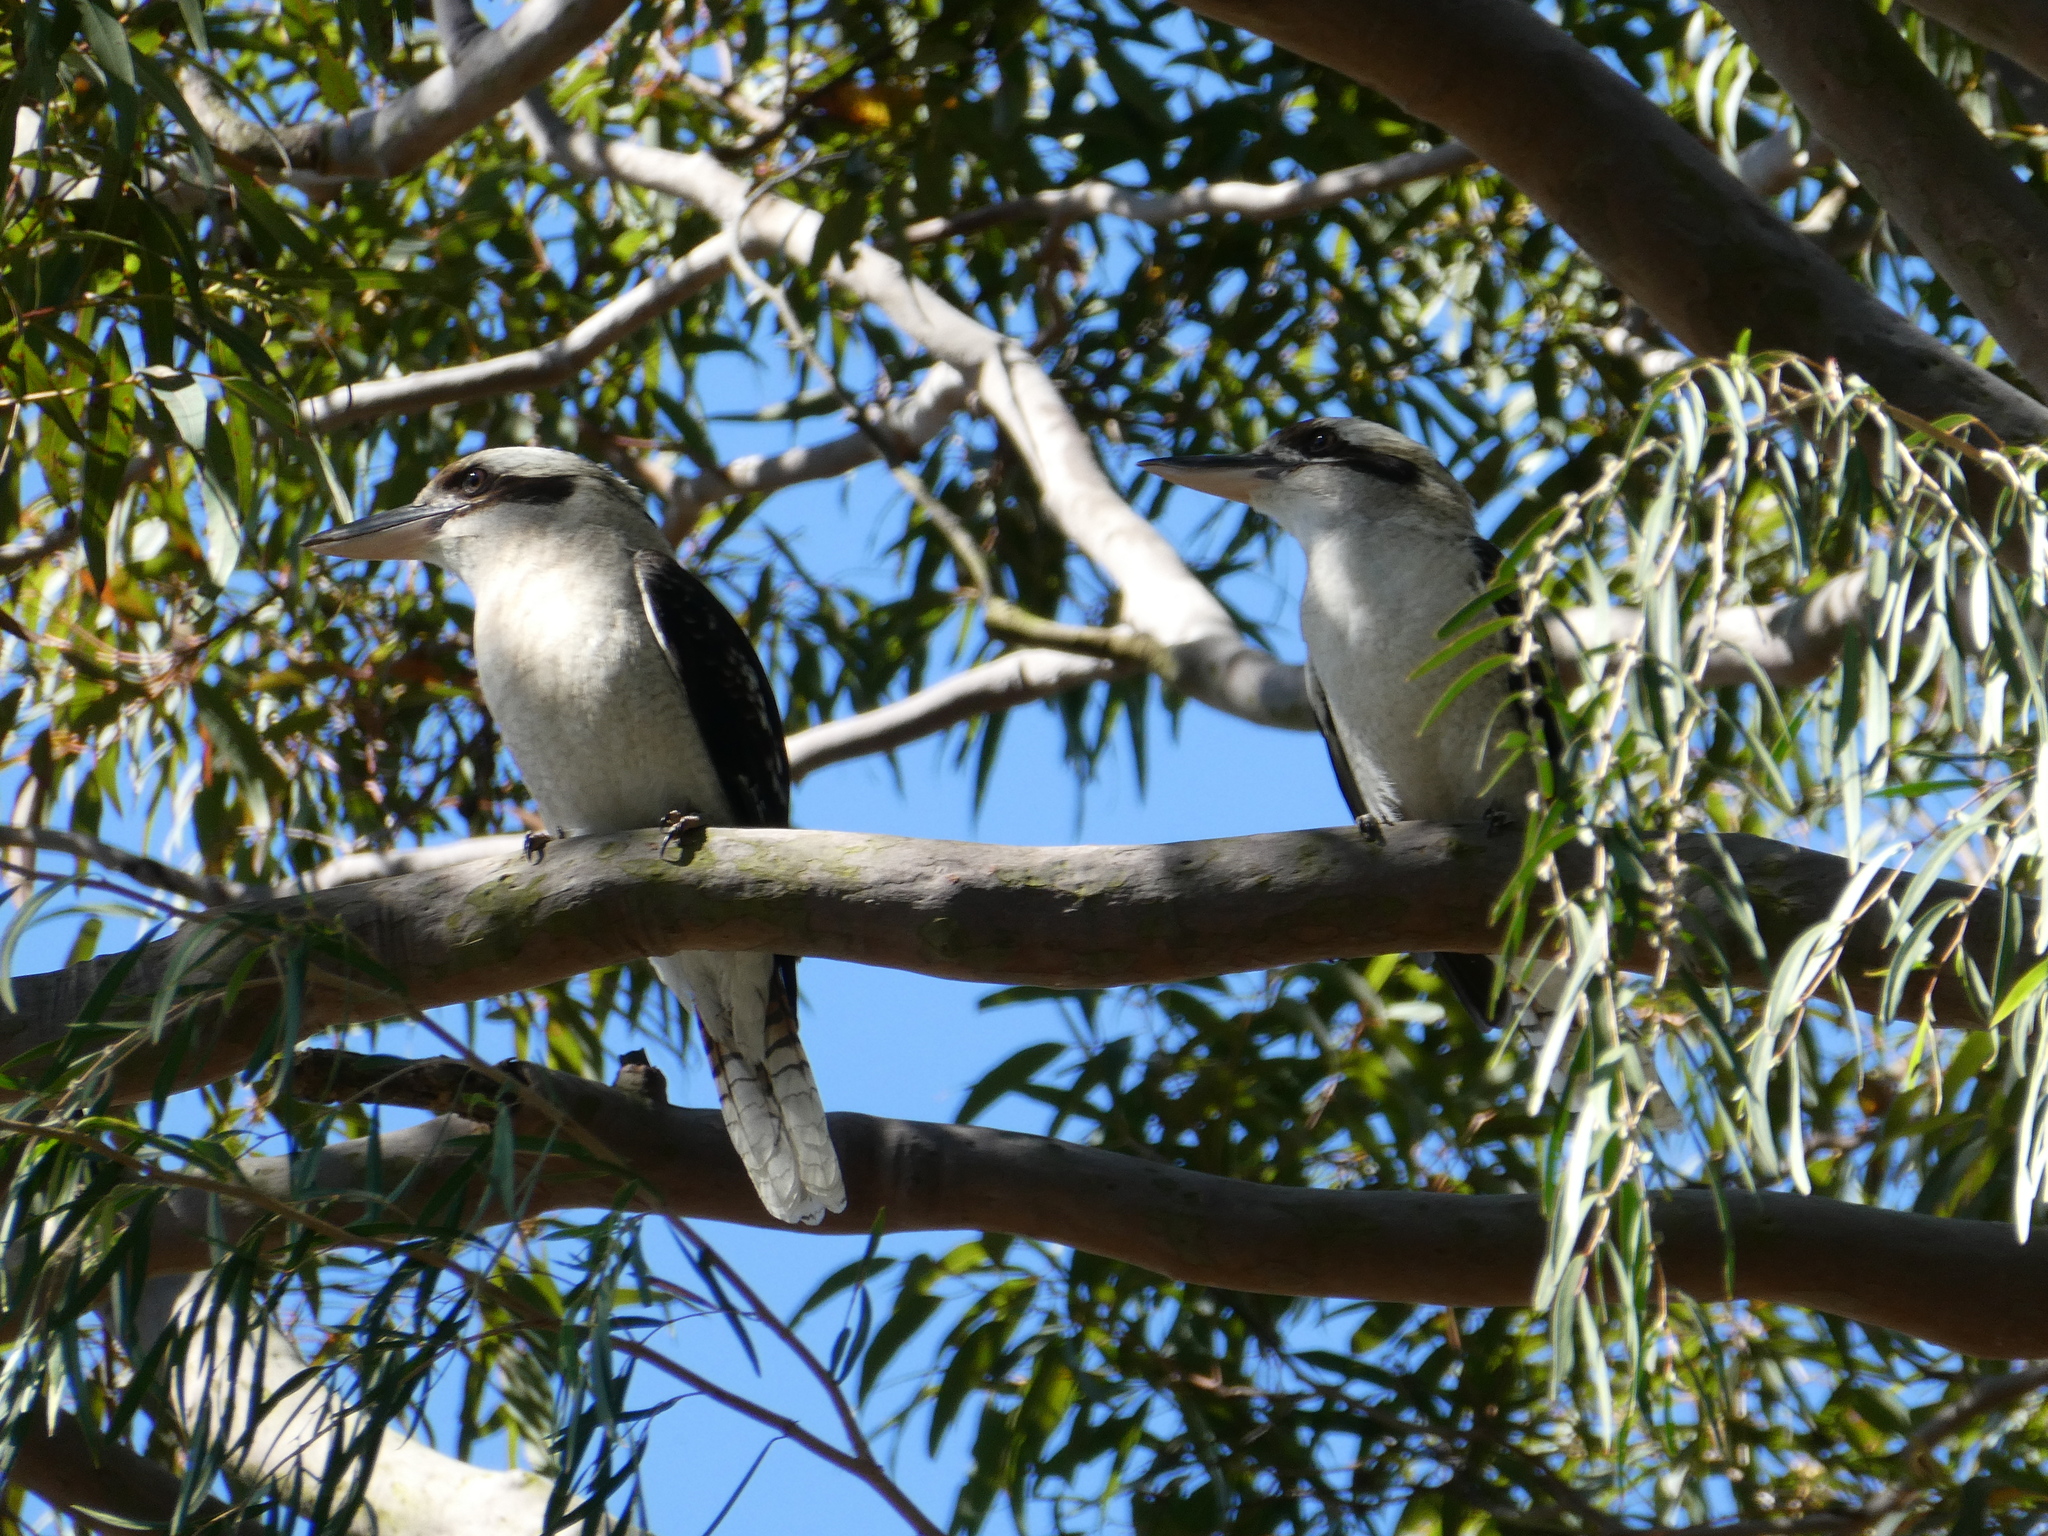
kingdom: Animalia
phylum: Chordata
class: Aves
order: Coraciiformes
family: Alcedinidae
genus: Dacelo
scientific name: Dacelo novaeguineae
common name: Laughing kookaburra
